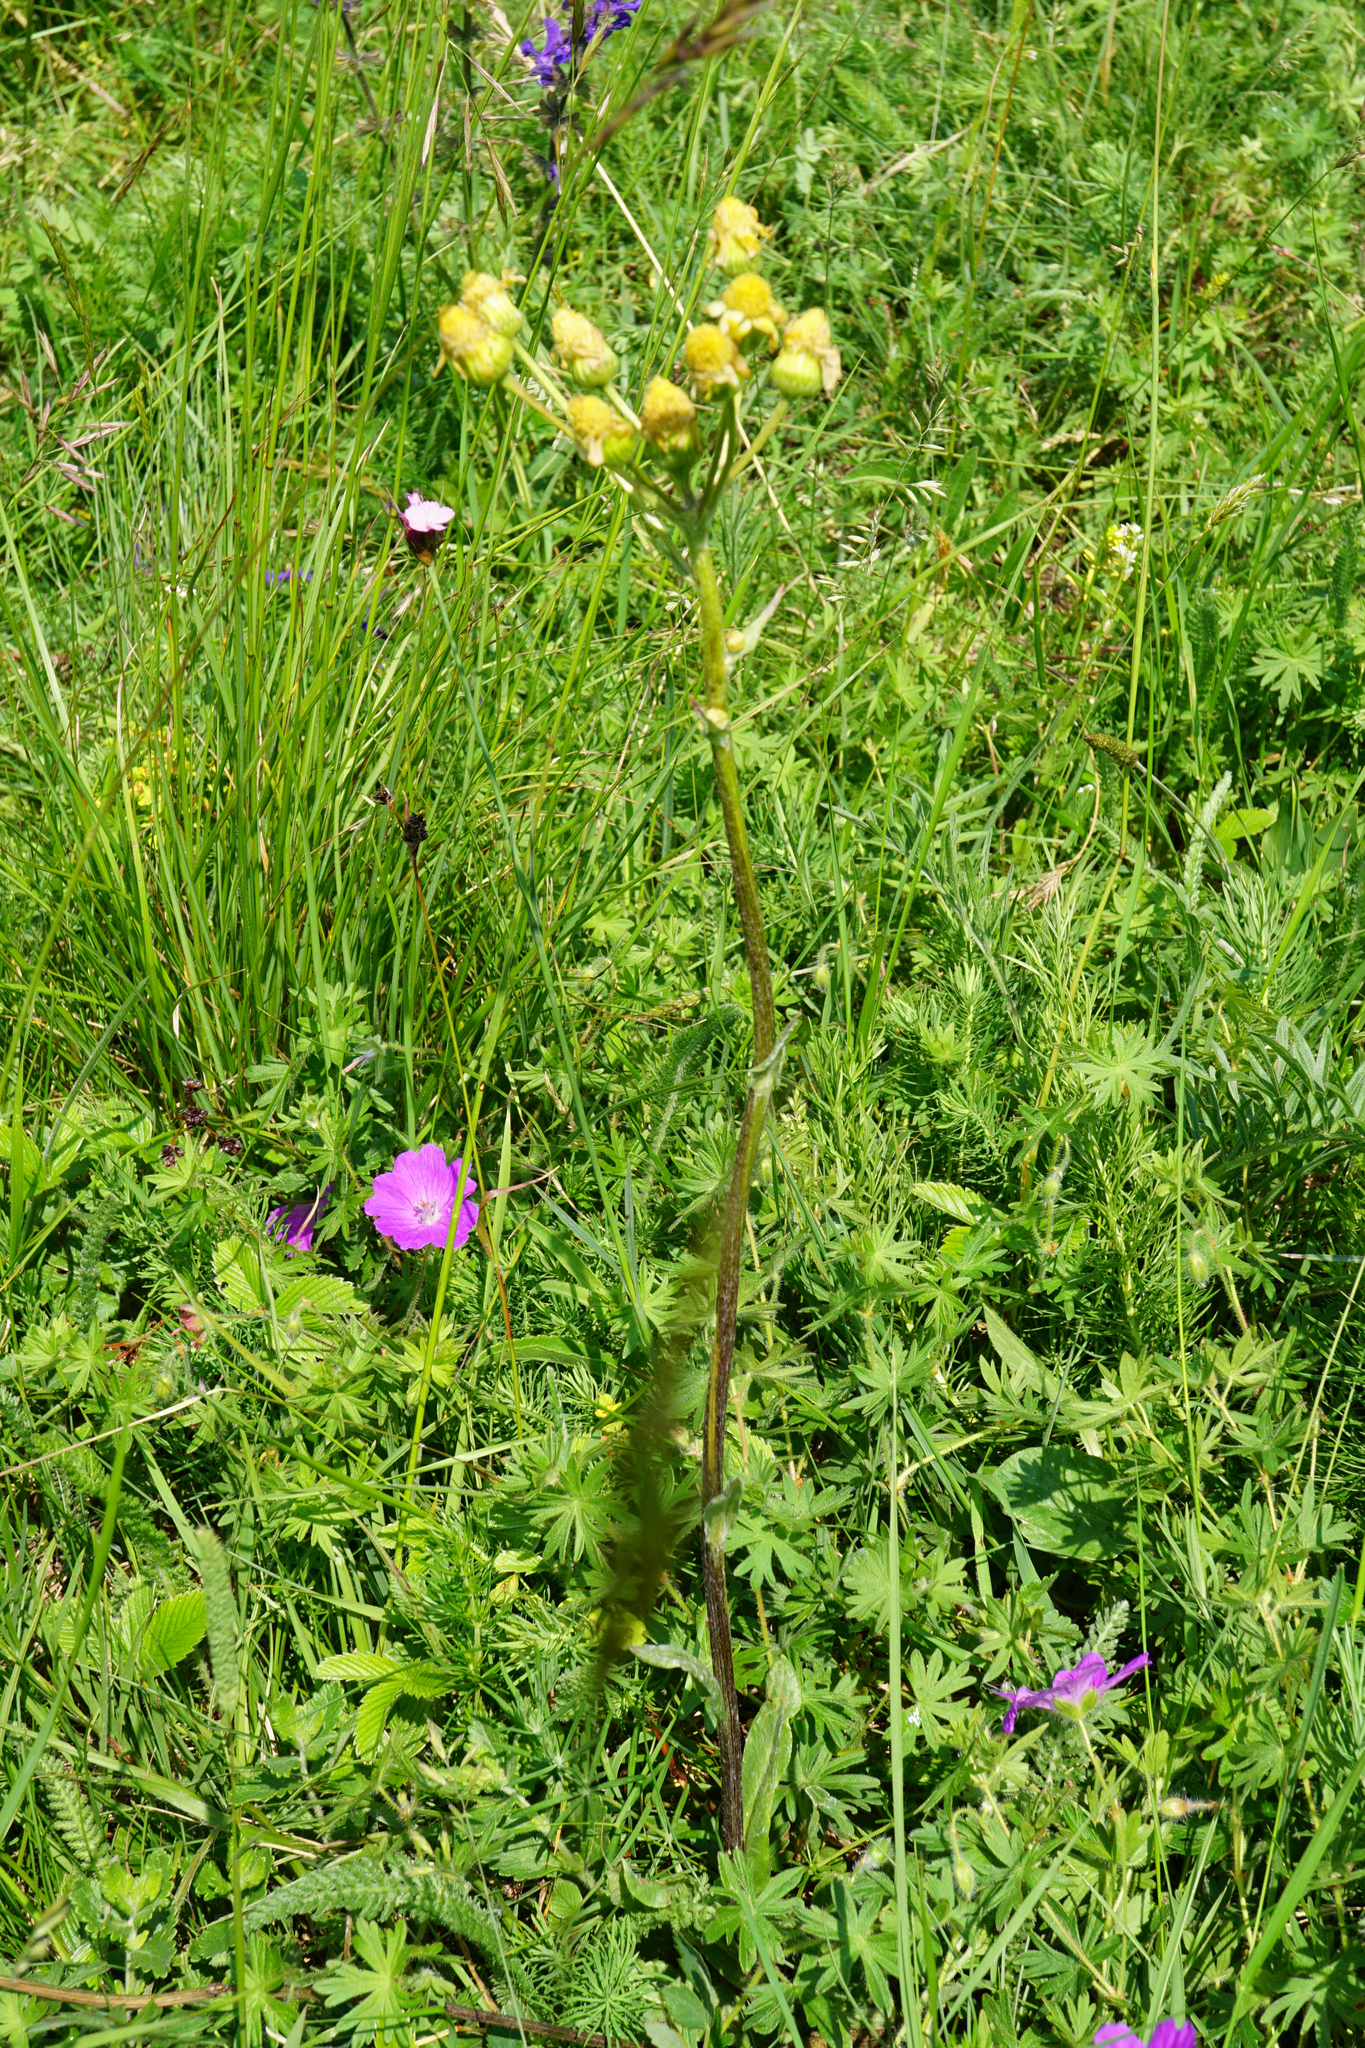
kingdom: Plantae
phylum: Tracheophyta
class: Magnoliopsida
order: Asterales
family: Asteraceae
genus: Tephroseris
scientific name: Tephroseris integrifolia
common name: Field fleawort
